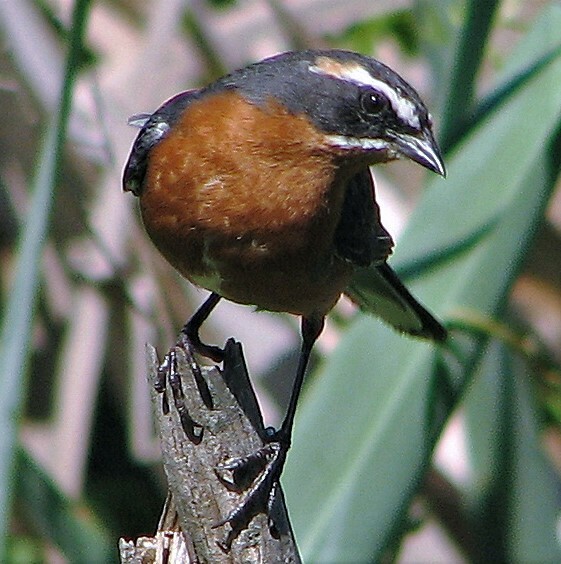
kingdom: Animalia
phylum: Chordata
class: Aves
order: Passeriformes
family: Thraupidae
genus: Poospiza
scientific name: Poospiza nigrorufa
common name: Black-and-rufous warbling finch
